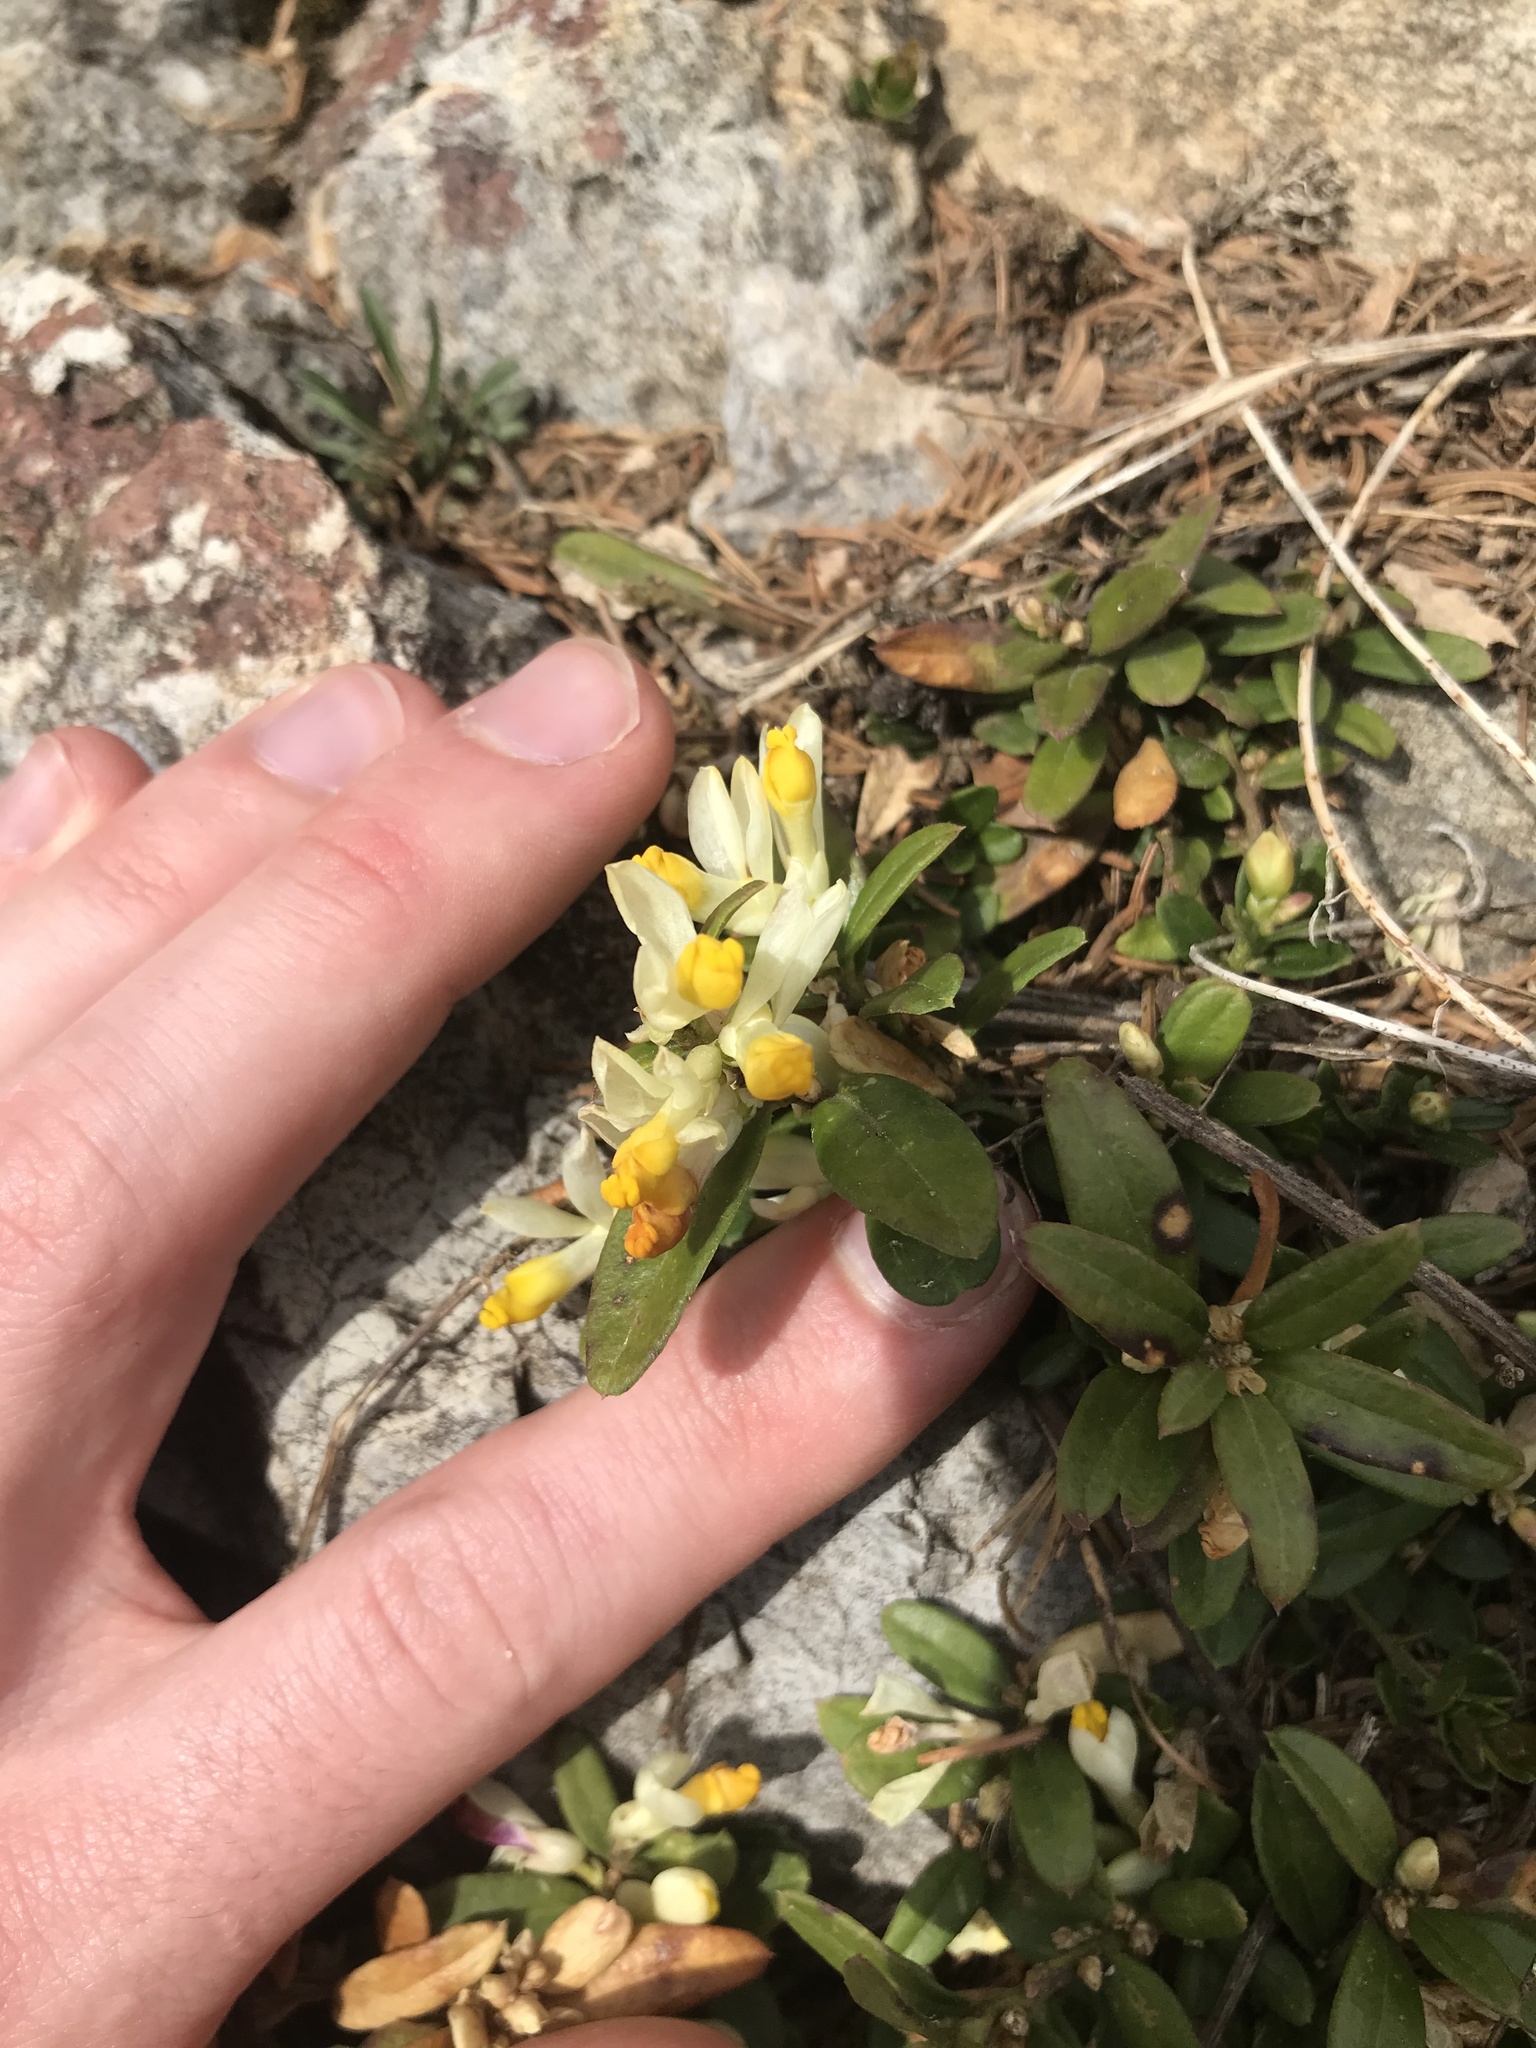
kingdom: Plantae
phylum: Tracheophyta
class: Magnoliopsida
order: Fabales
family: Polygalaceae
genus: Polygaloides
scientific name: Polygaloides chamaebuxus
